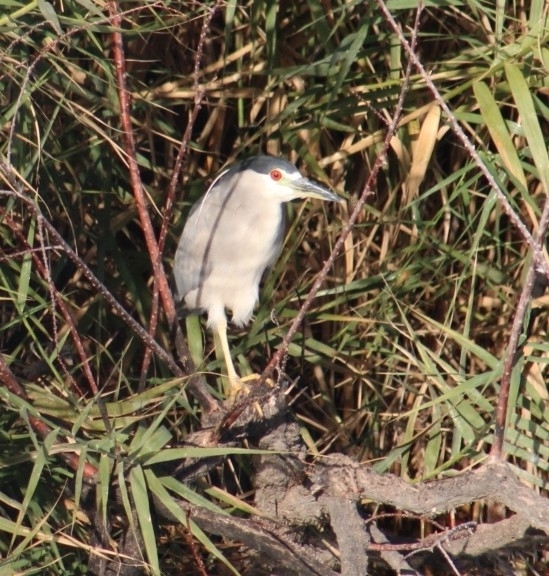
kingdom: Animalia
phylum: Chordata
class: Aves
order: Pelecaniformes
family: Ardeidae
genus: Nycticorax
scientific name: Nycticorax nycticorax
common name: Black-crowned night heron
